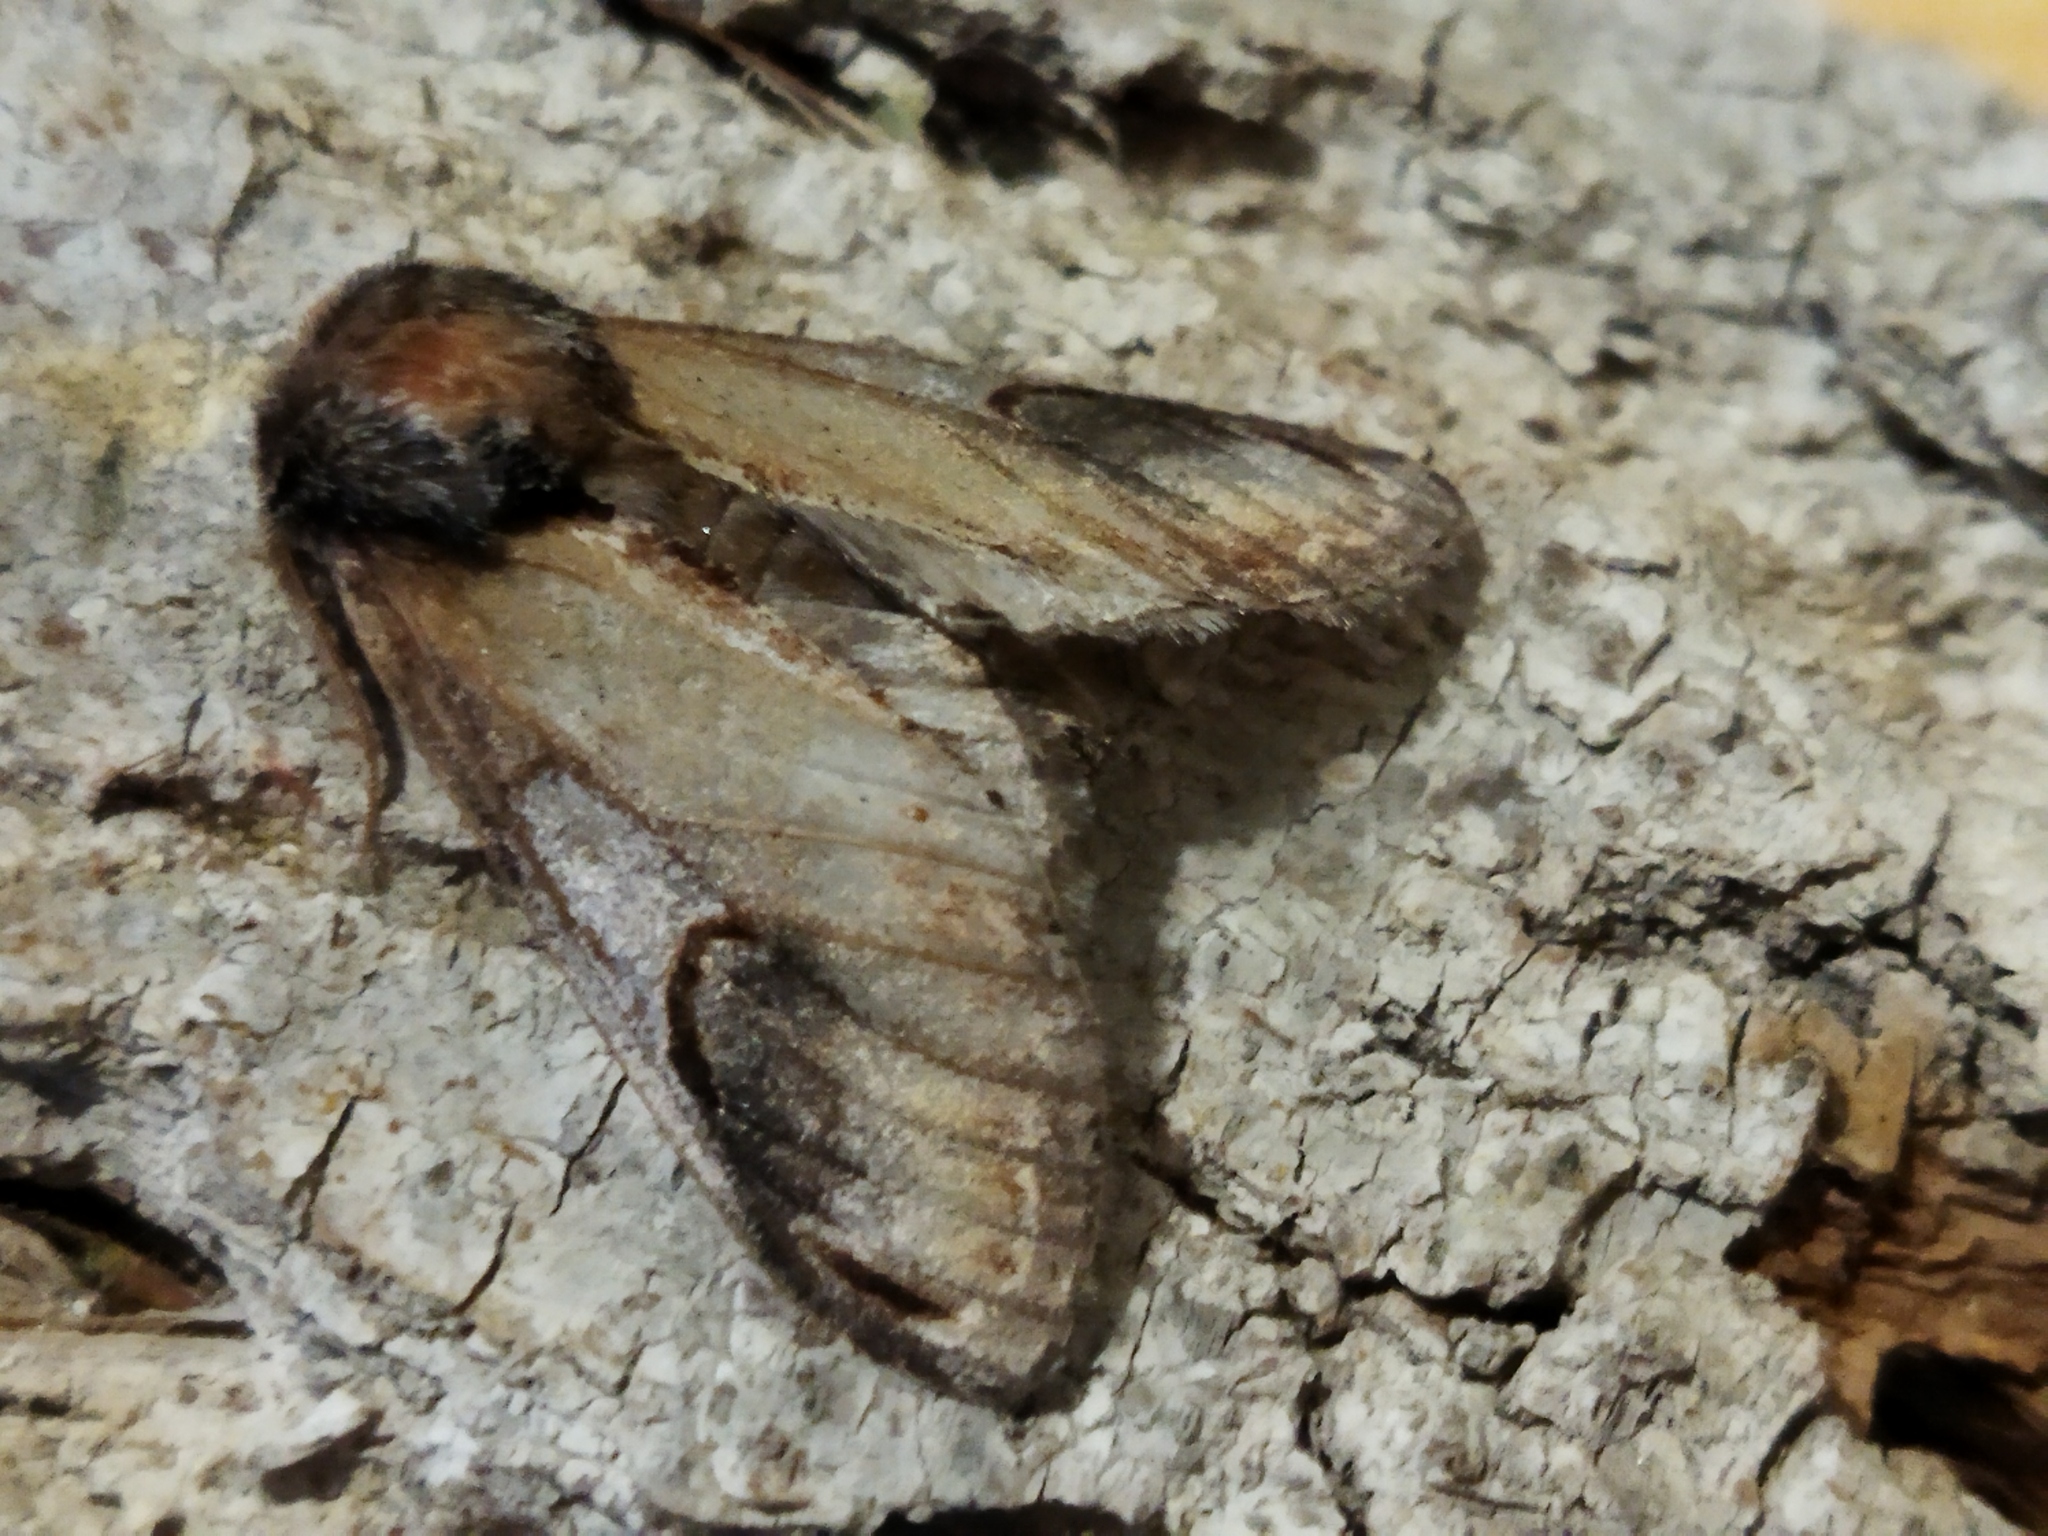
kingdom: Animalia
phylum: Arthropoda
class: Insecta
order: Lepidoptera
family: Notodontidae
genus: Notodonta
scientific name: Notodonta ziczac
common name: Pebble prominent
